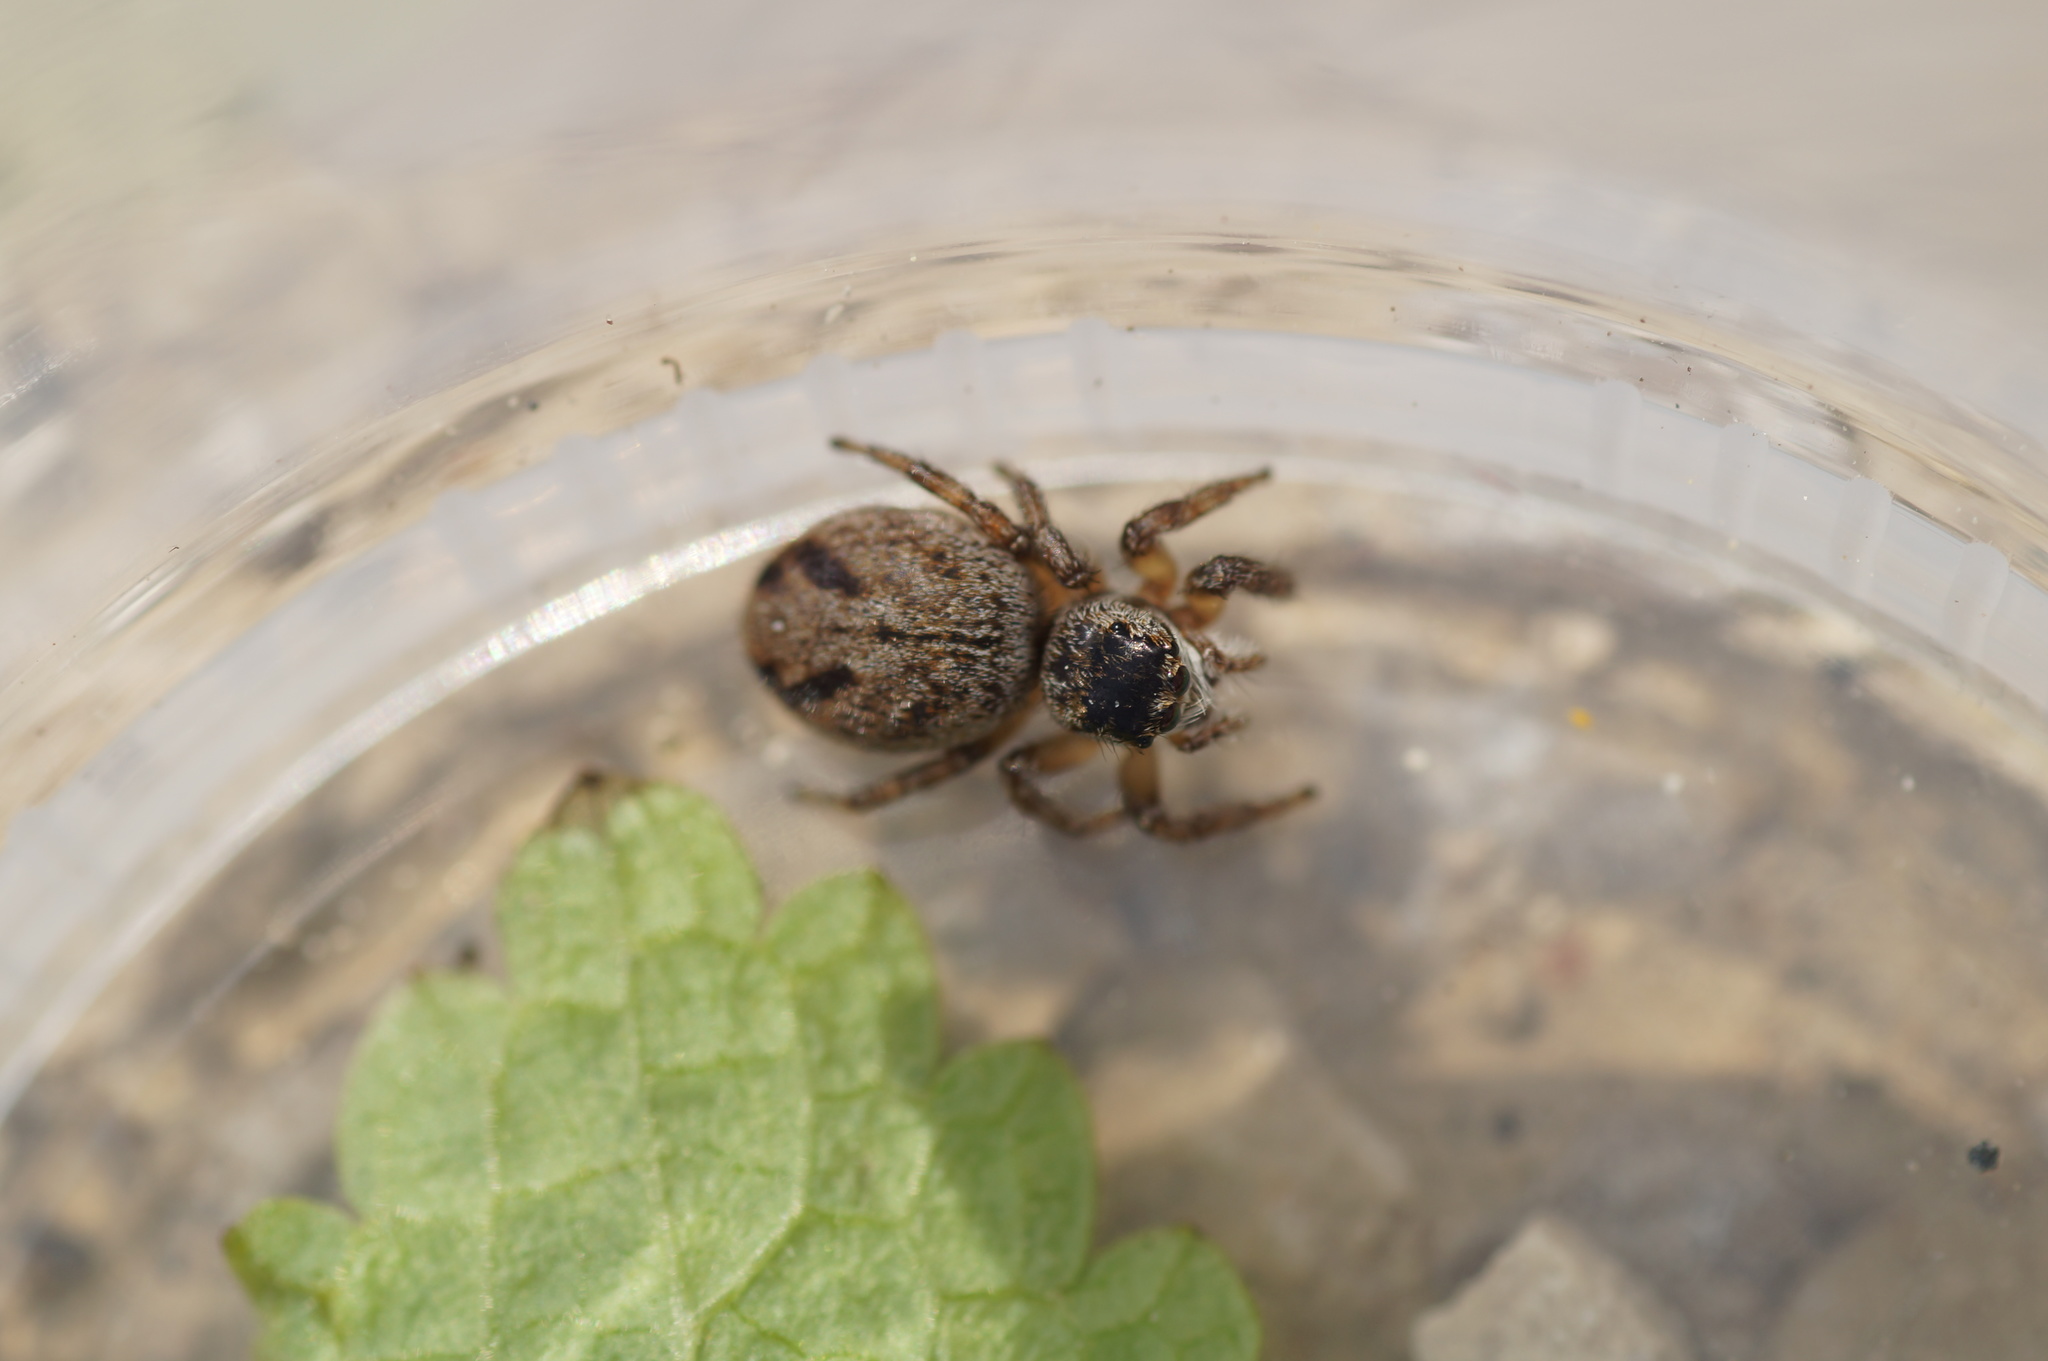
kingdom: Animalia
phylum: Arthropoda
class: Arachnida
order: Araneae
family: Salticidae
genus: Evarcha
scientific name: Evarcha arcuata
